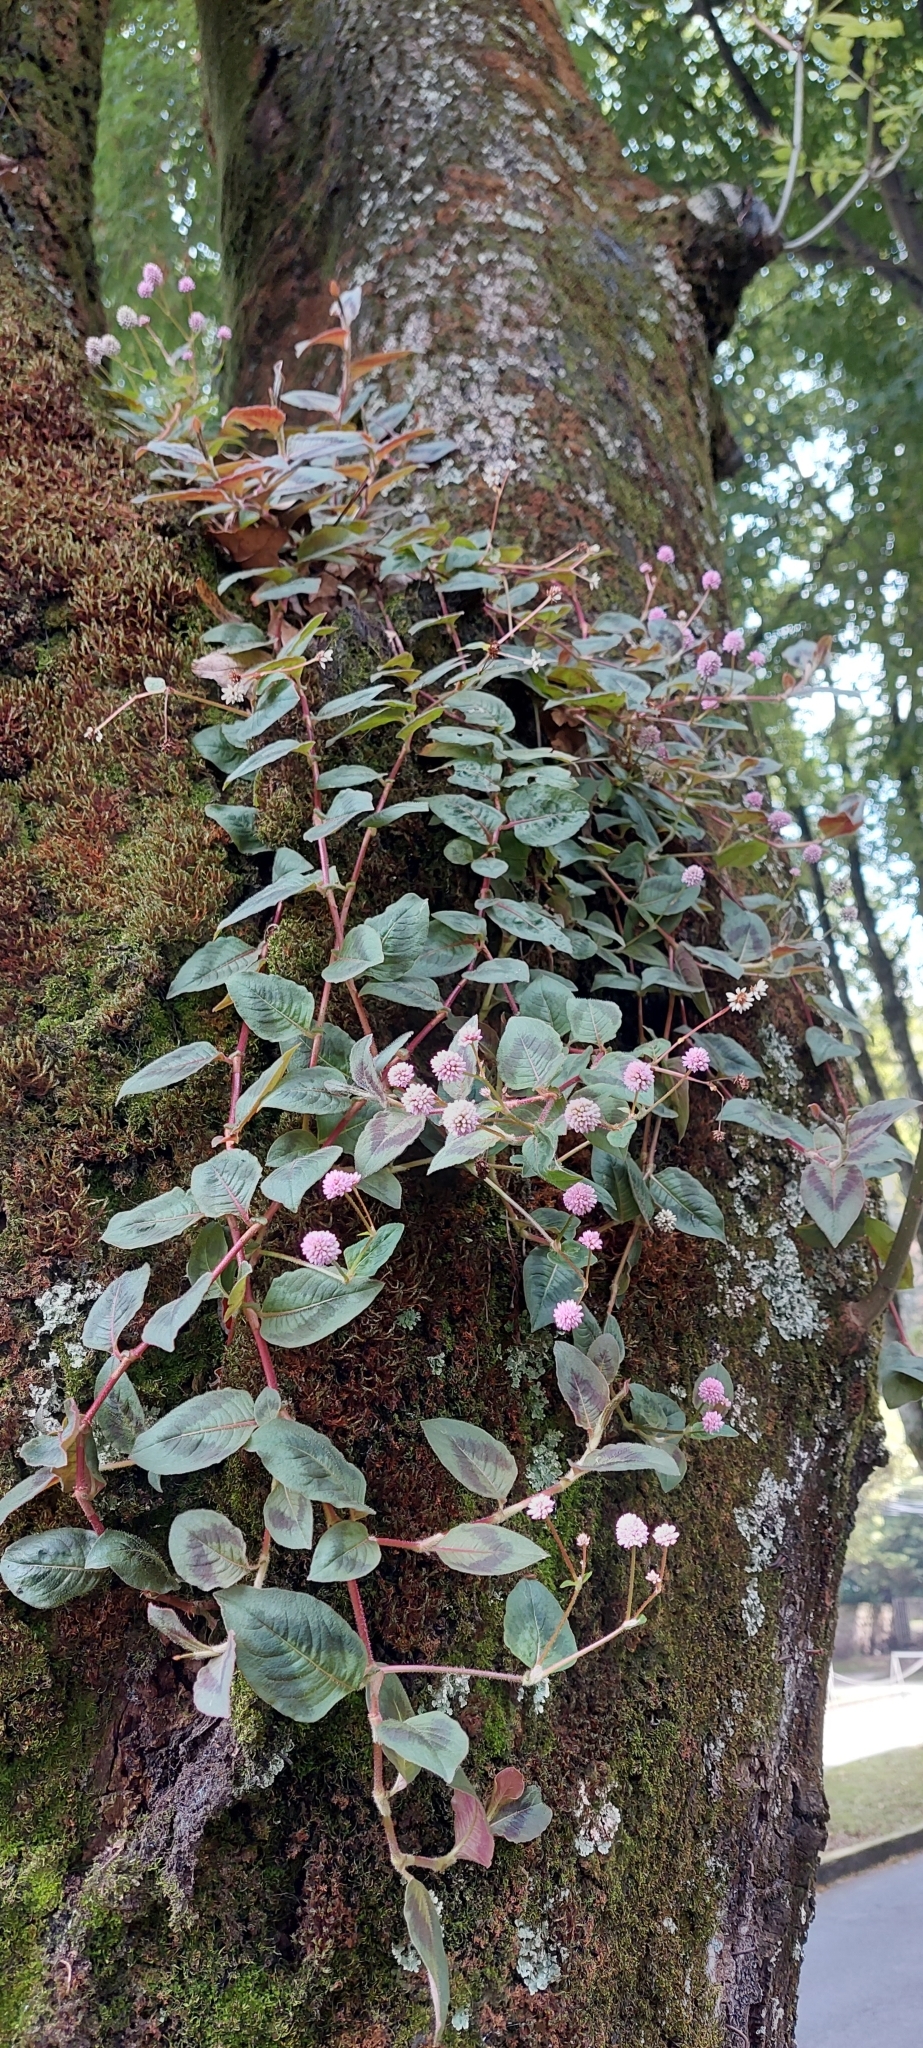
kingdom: Plantae
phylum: Tracheophyta
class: Magnoliopsida
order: Caryophyllales
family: Polygonaceae
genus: Persicaria
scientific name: Persicaria capitata
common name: Pinkhead smartweed
